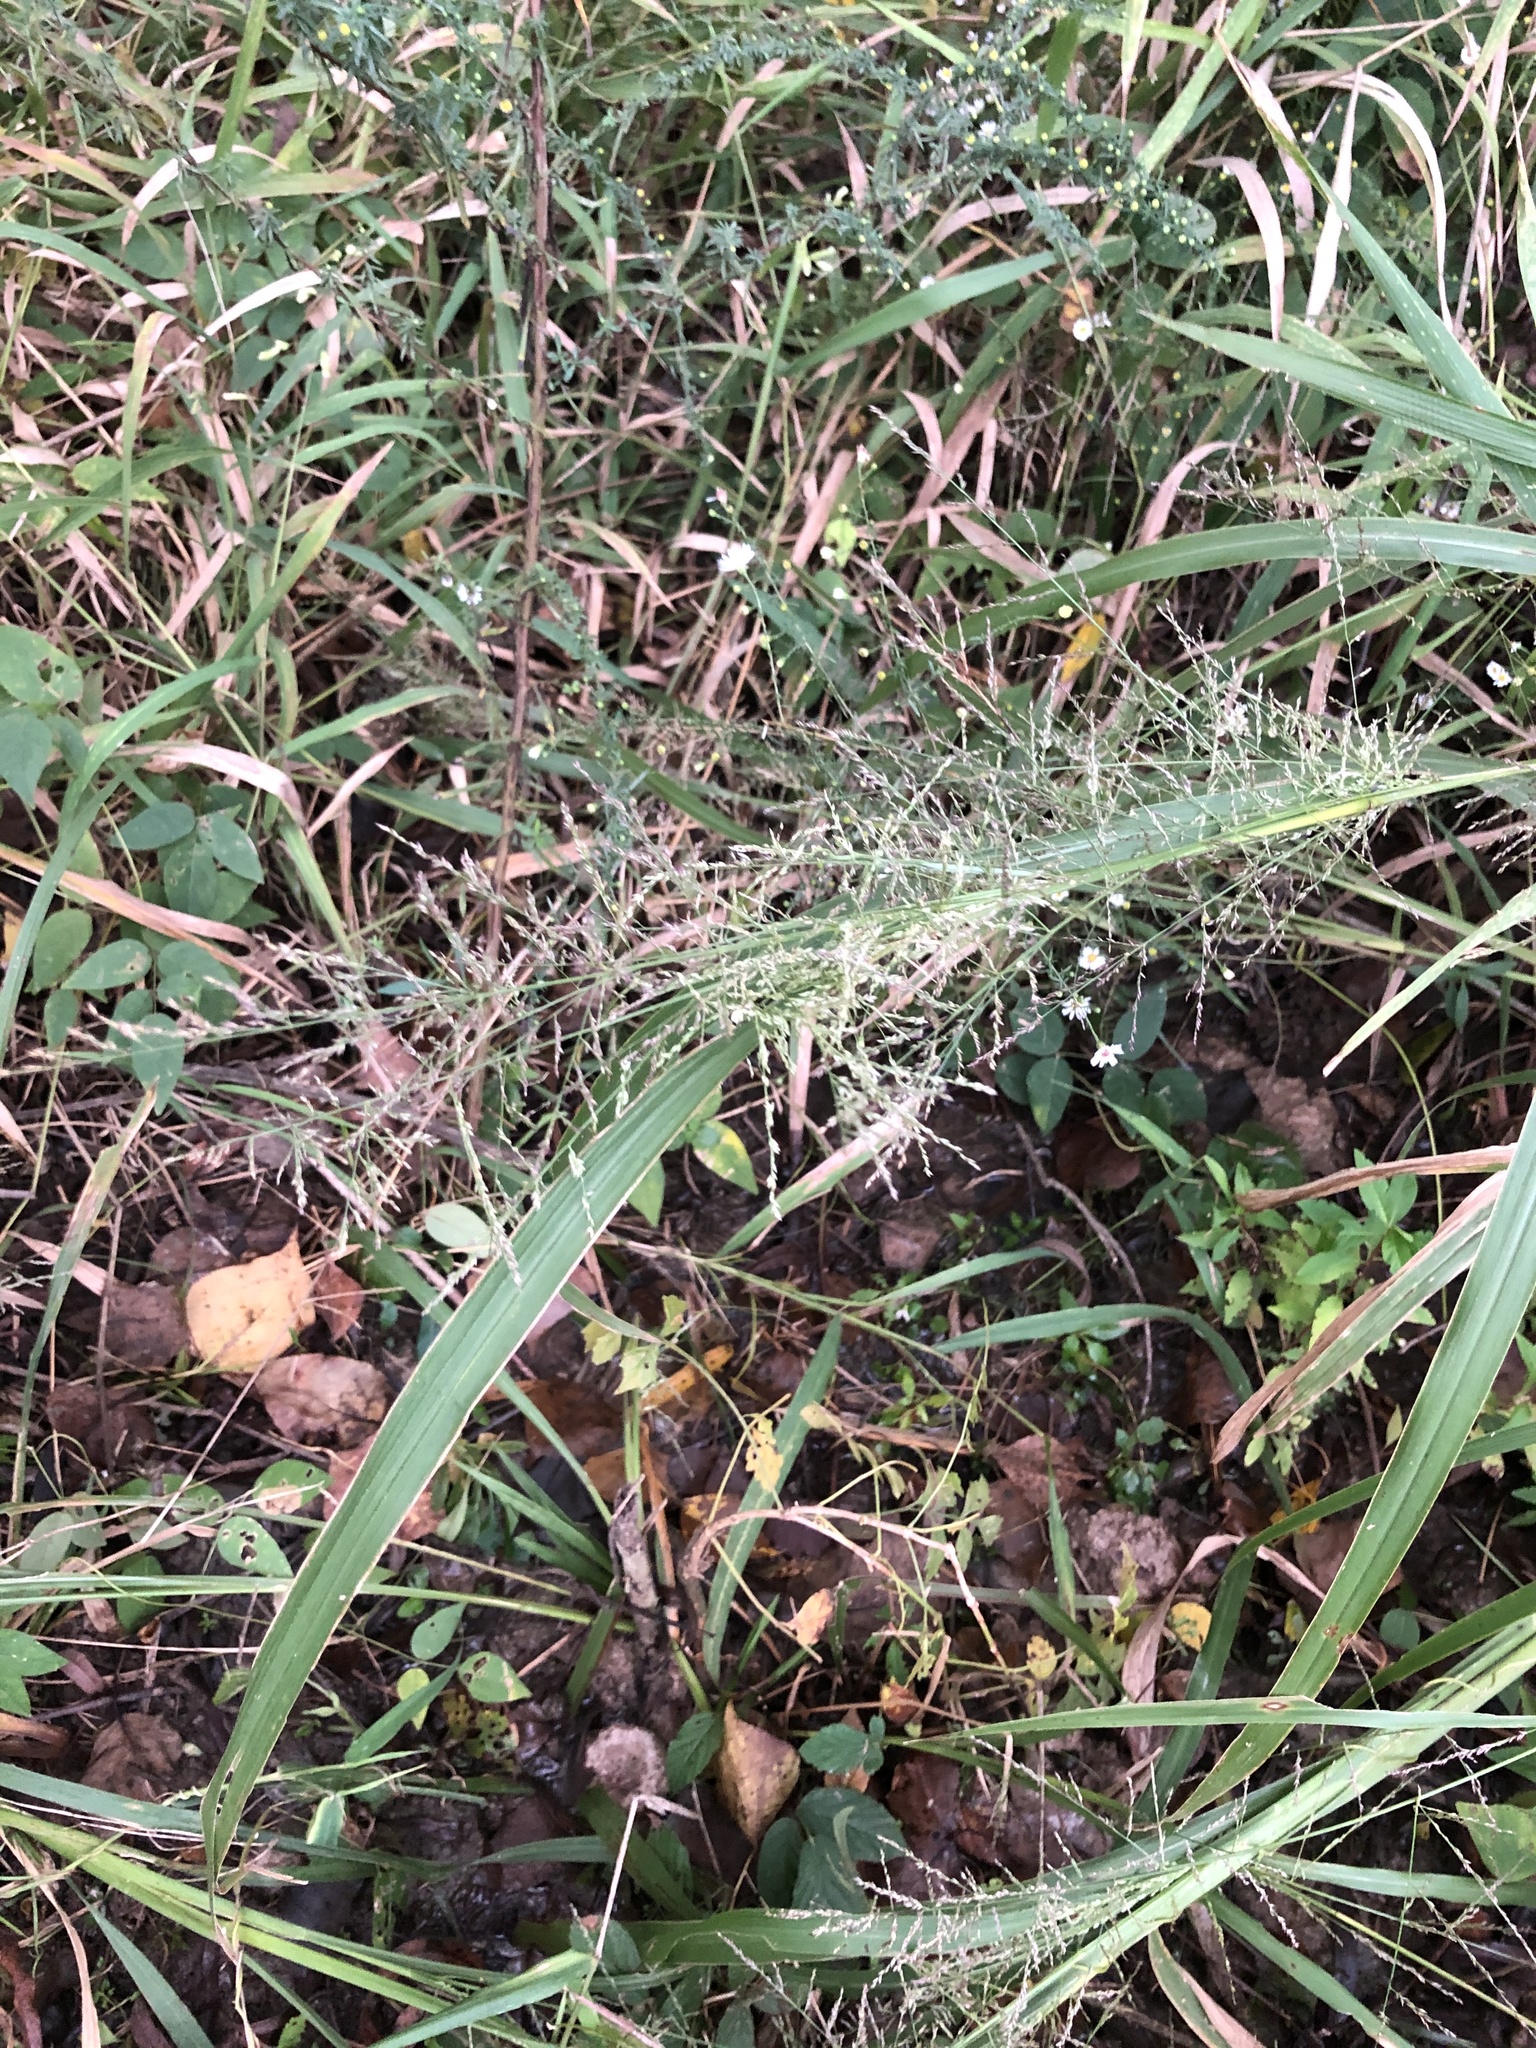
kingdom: Plantae
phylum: Tracheophyta
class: Liliopsida
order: Poales
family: Poaceae
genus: Coleataenia
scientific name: Coleataenia rigidula
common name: Redtop panicgrass
